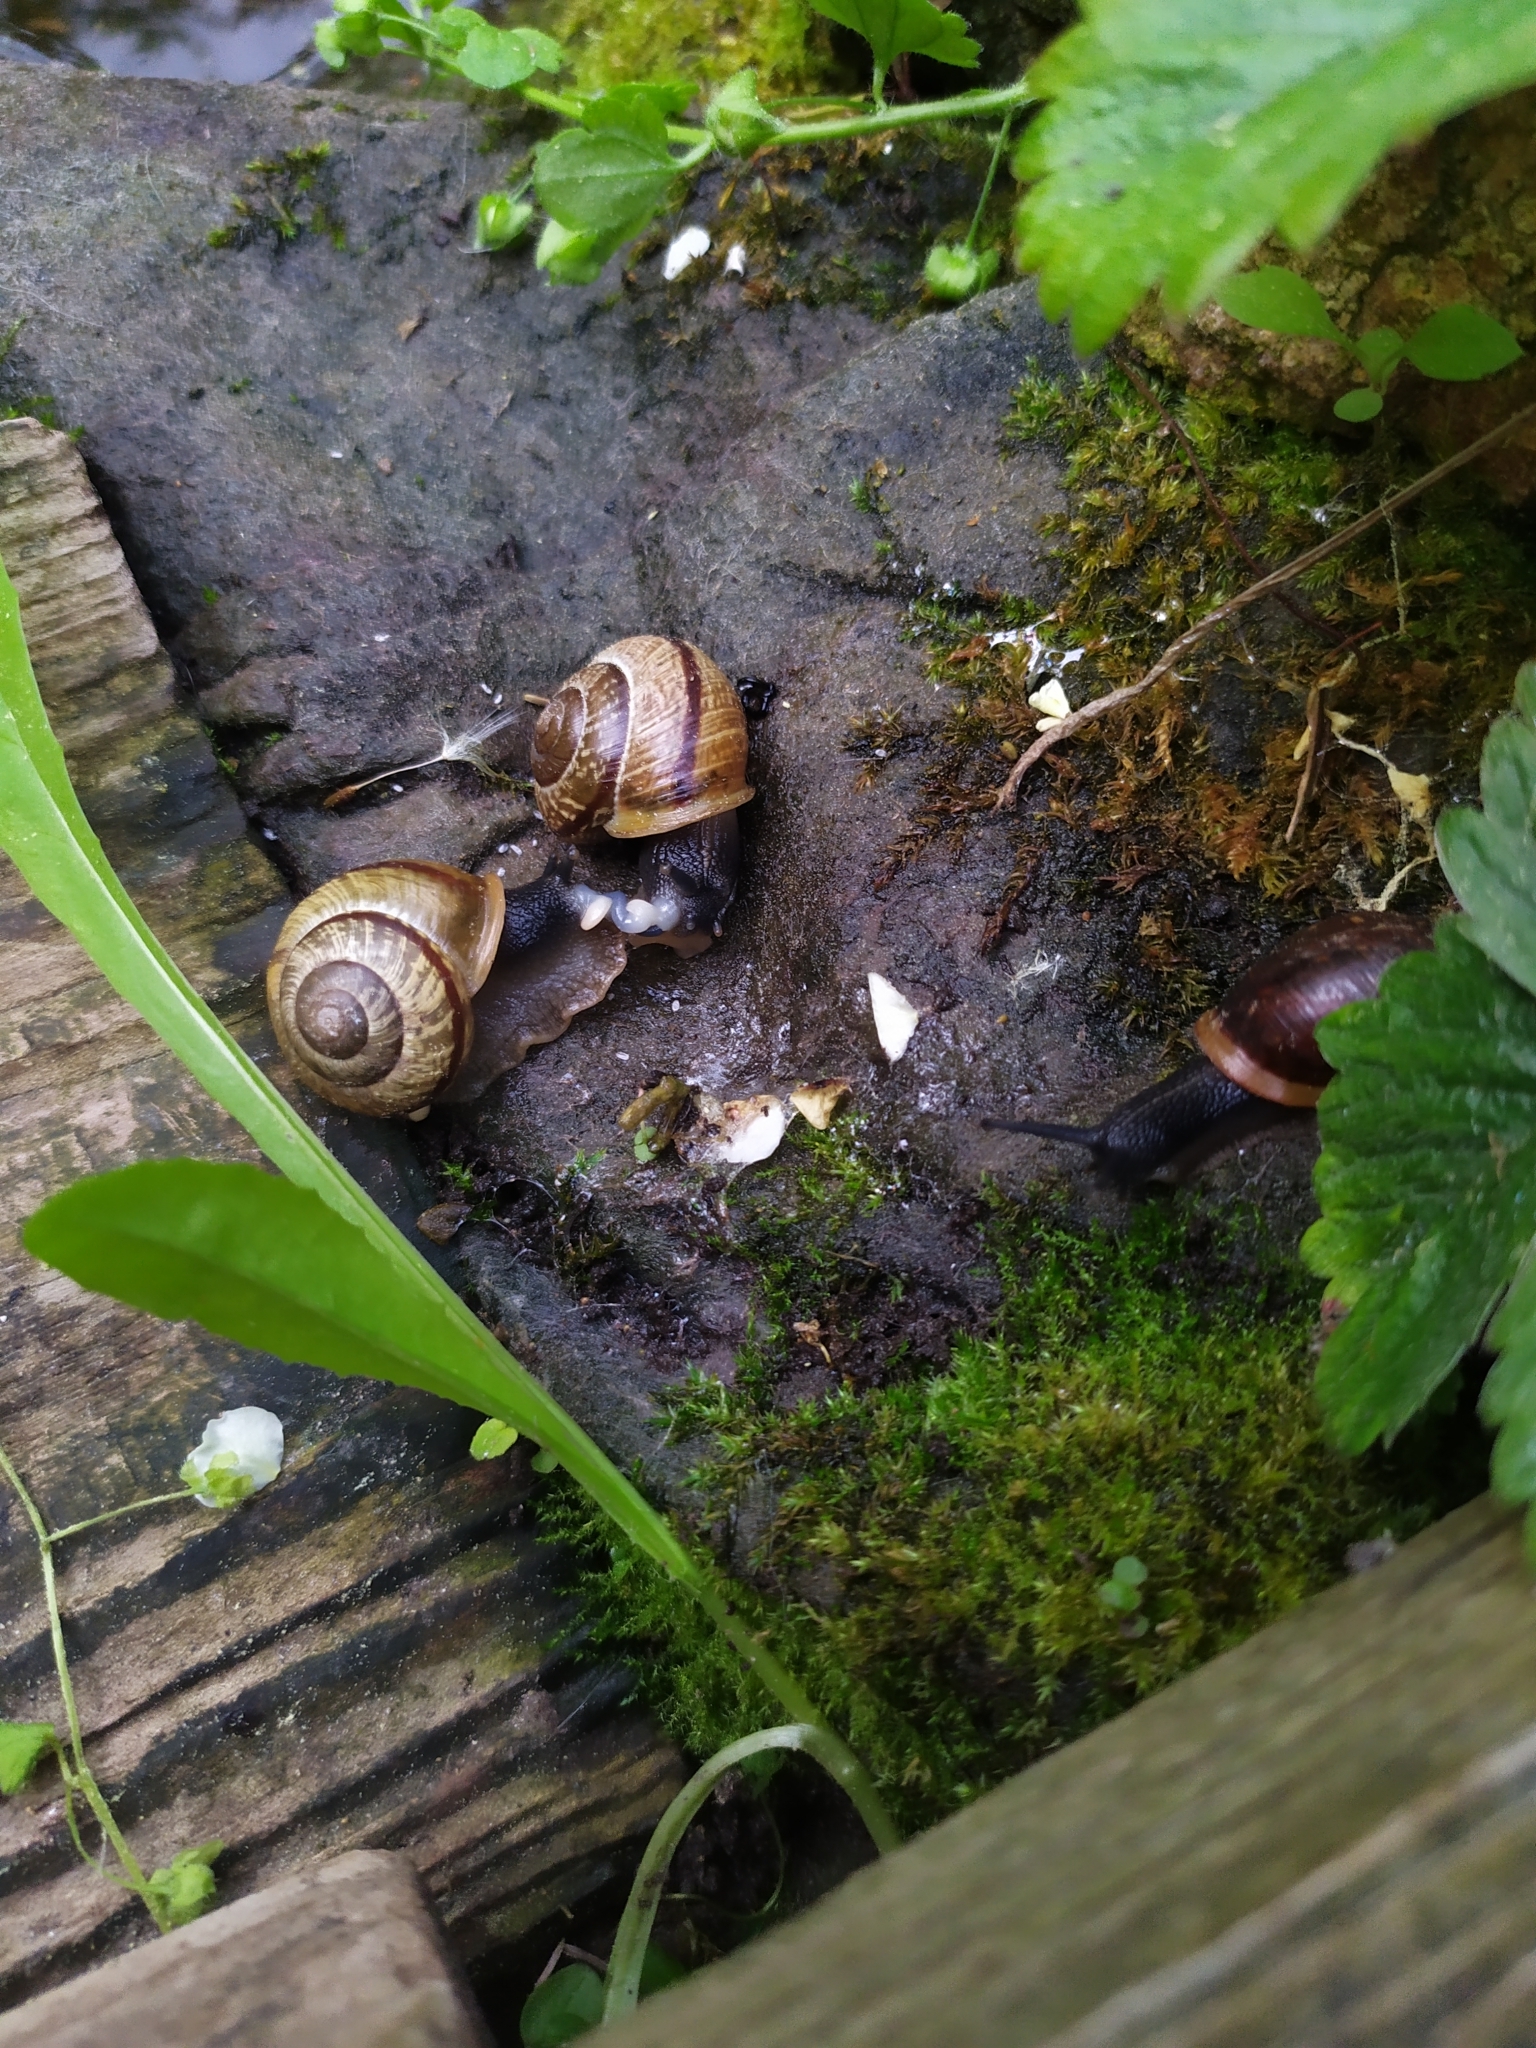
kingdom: Animalia
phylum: Mollusca
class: Gastropoda
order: Stylommatophora
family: Helicidae
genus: Arianta
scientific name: Arianta arbustorum
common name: Copse snail
